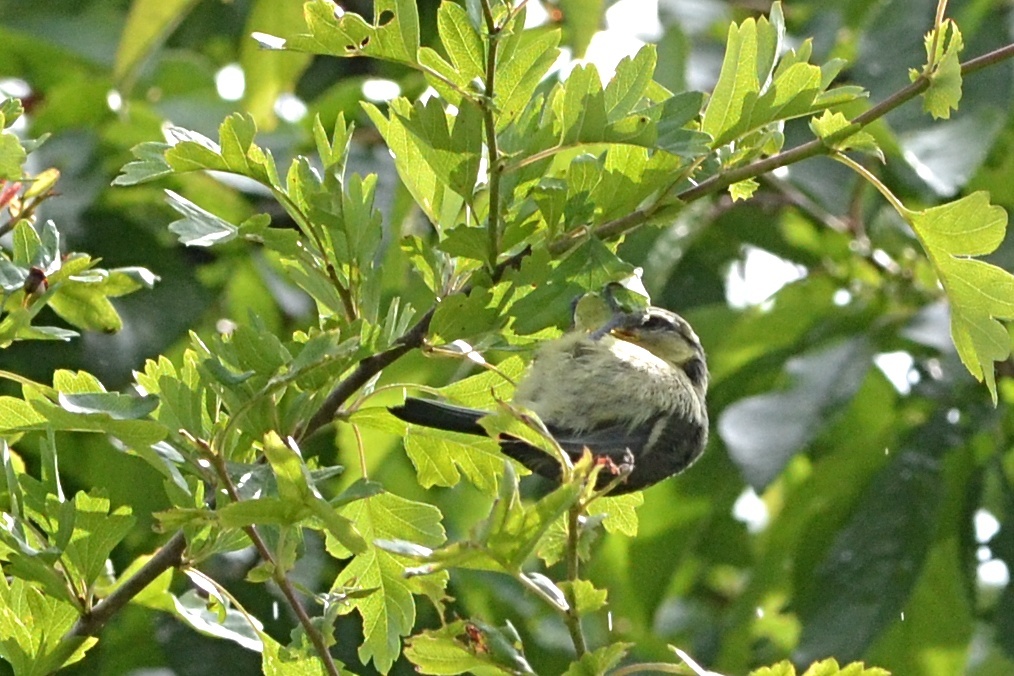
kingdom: Animalia
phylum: Chordata
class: Aves
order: Passeriformes
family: Paridae
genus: Cyanistes
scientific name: Cyanistes caeruleus
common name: Eurasian blue tit
